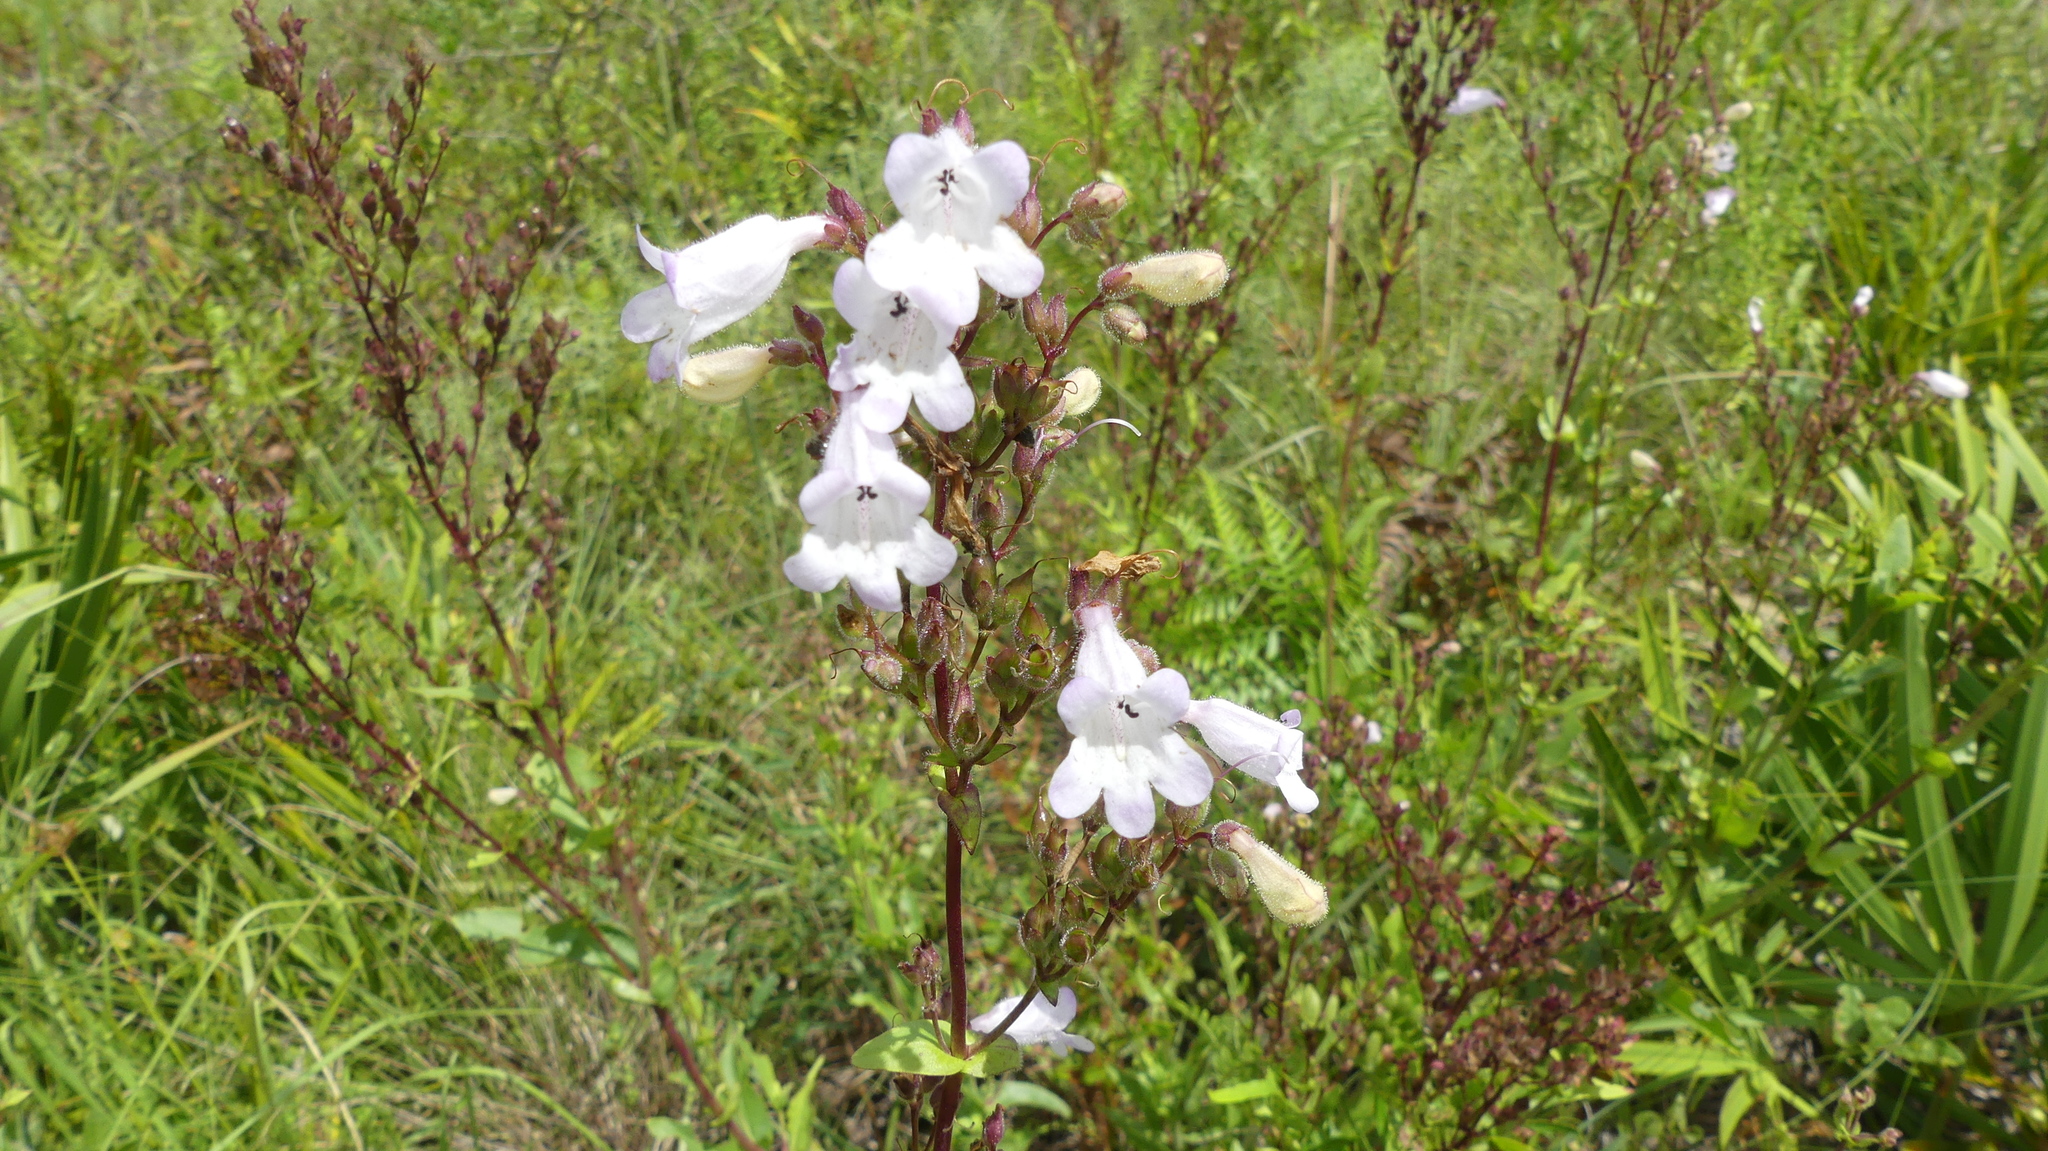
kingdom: Plantae
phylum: Tracheophyta
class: Magnoliopsida
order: Lamiales
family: Plantaginaceae
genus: Penstemon
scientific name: Penstemon multiflorus
